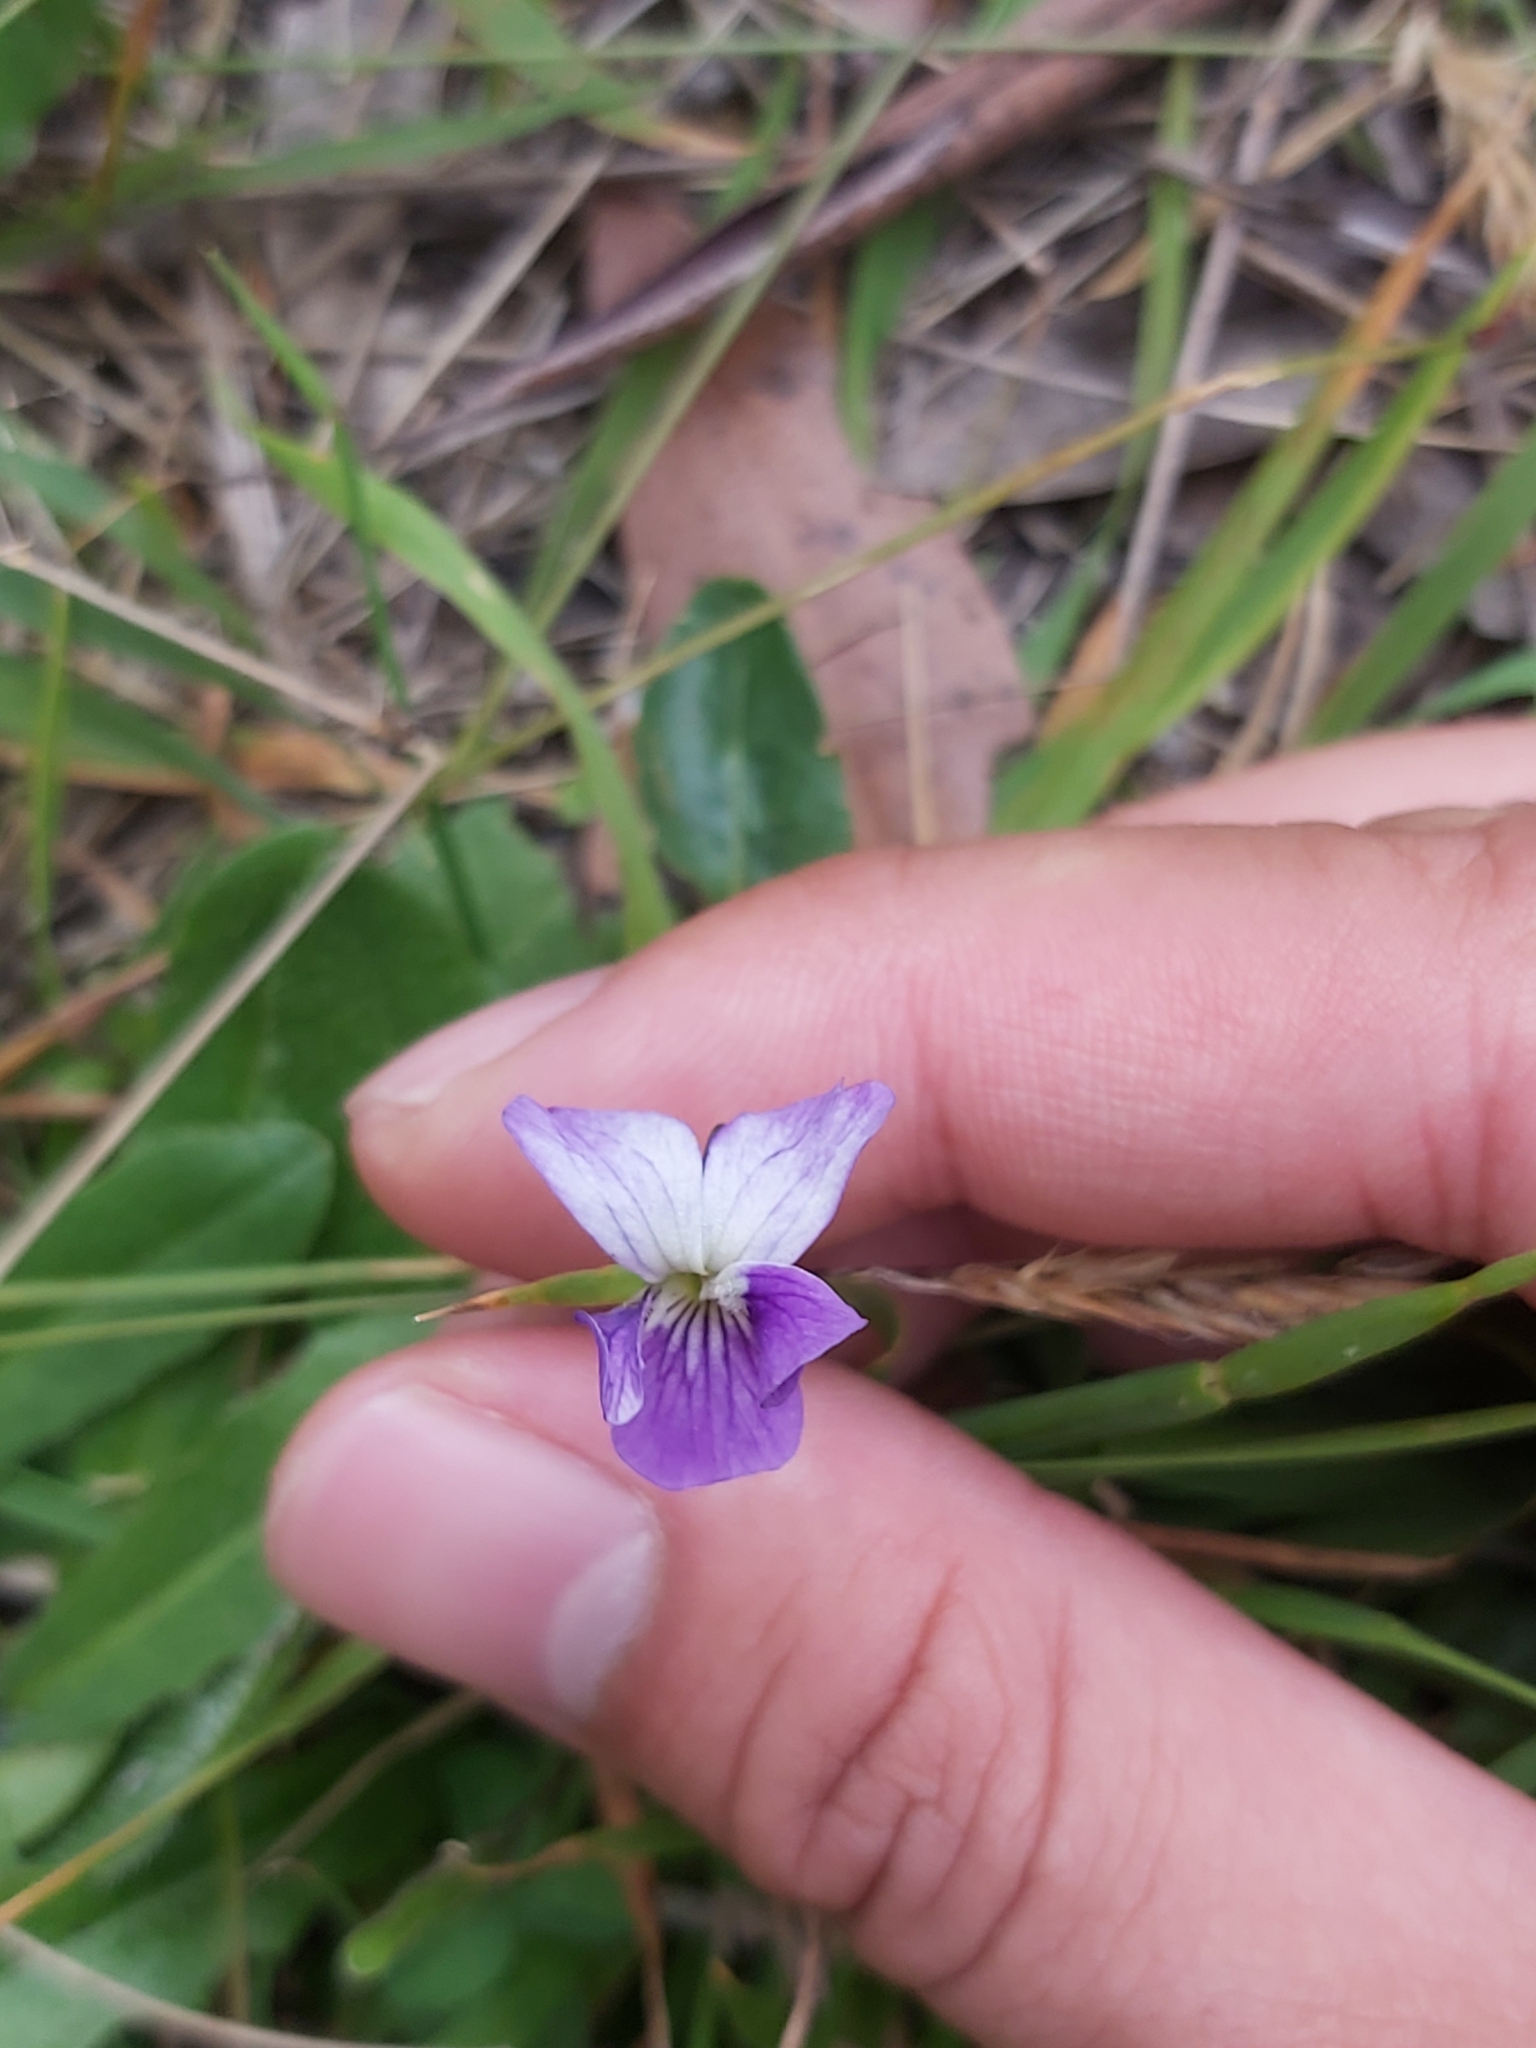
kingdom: Plantae
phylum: Tracheophyta
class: Magnoliopsida
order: Malpighiales
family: Violaceae
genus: Viola
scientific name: Viola betonicifolia
